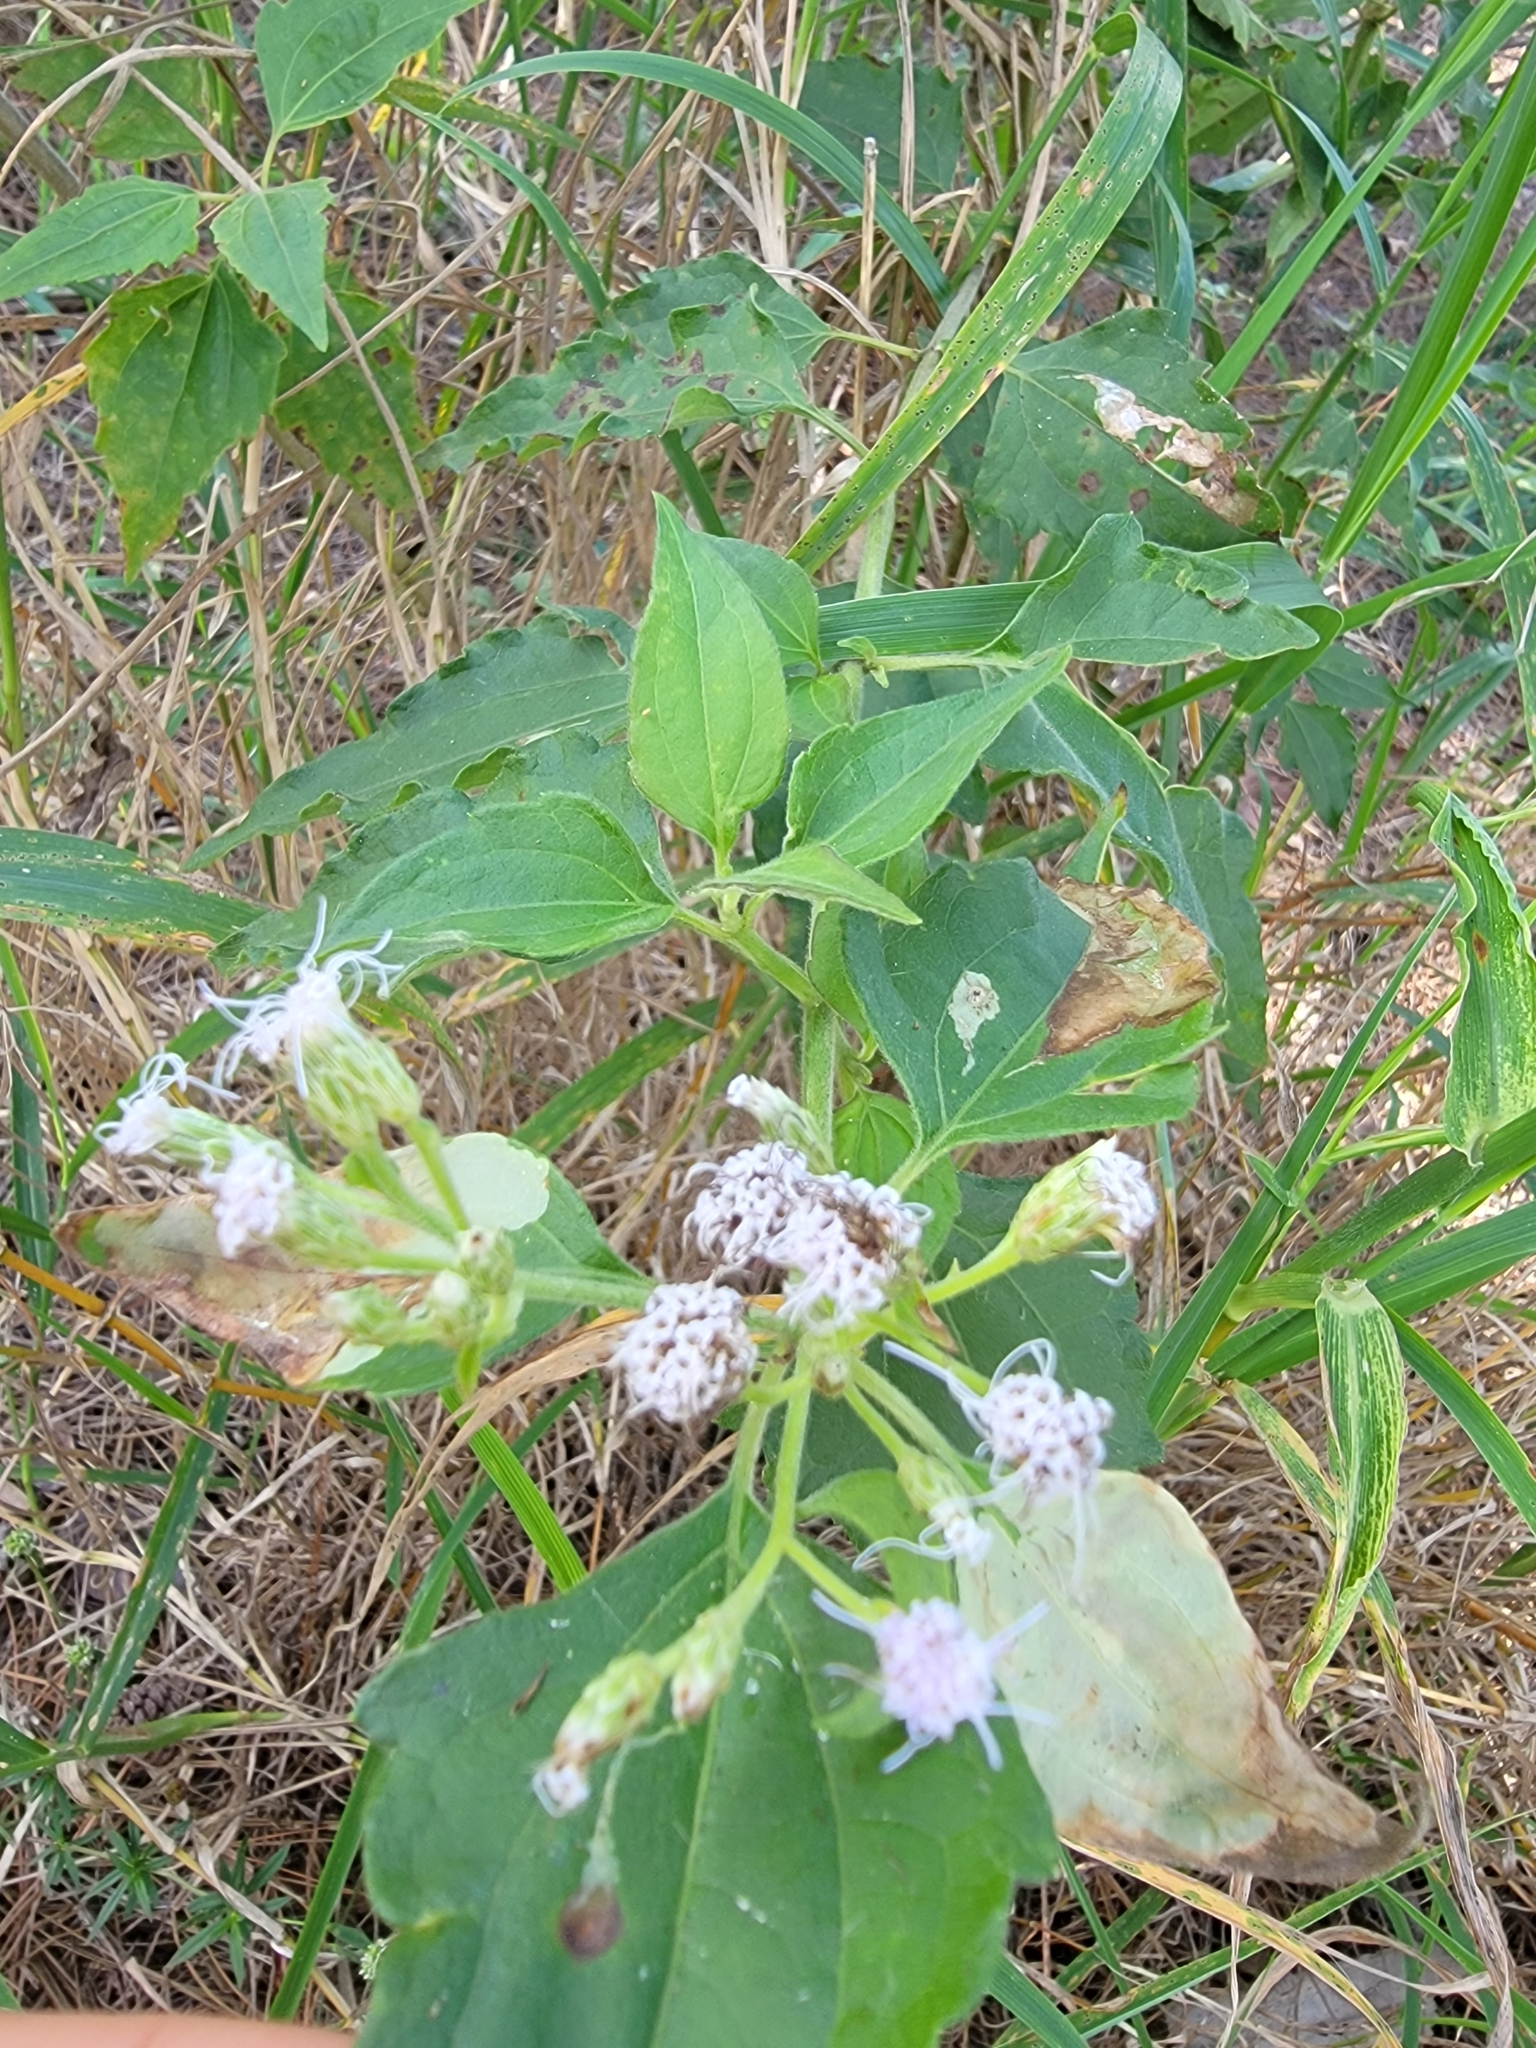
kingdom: Plantae
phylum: Tracheophyta
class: Magnoliopsida
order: Asterales
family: Asteraceae
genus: Chromolaena
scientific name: Chromolaena odorata
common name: Siamweed
